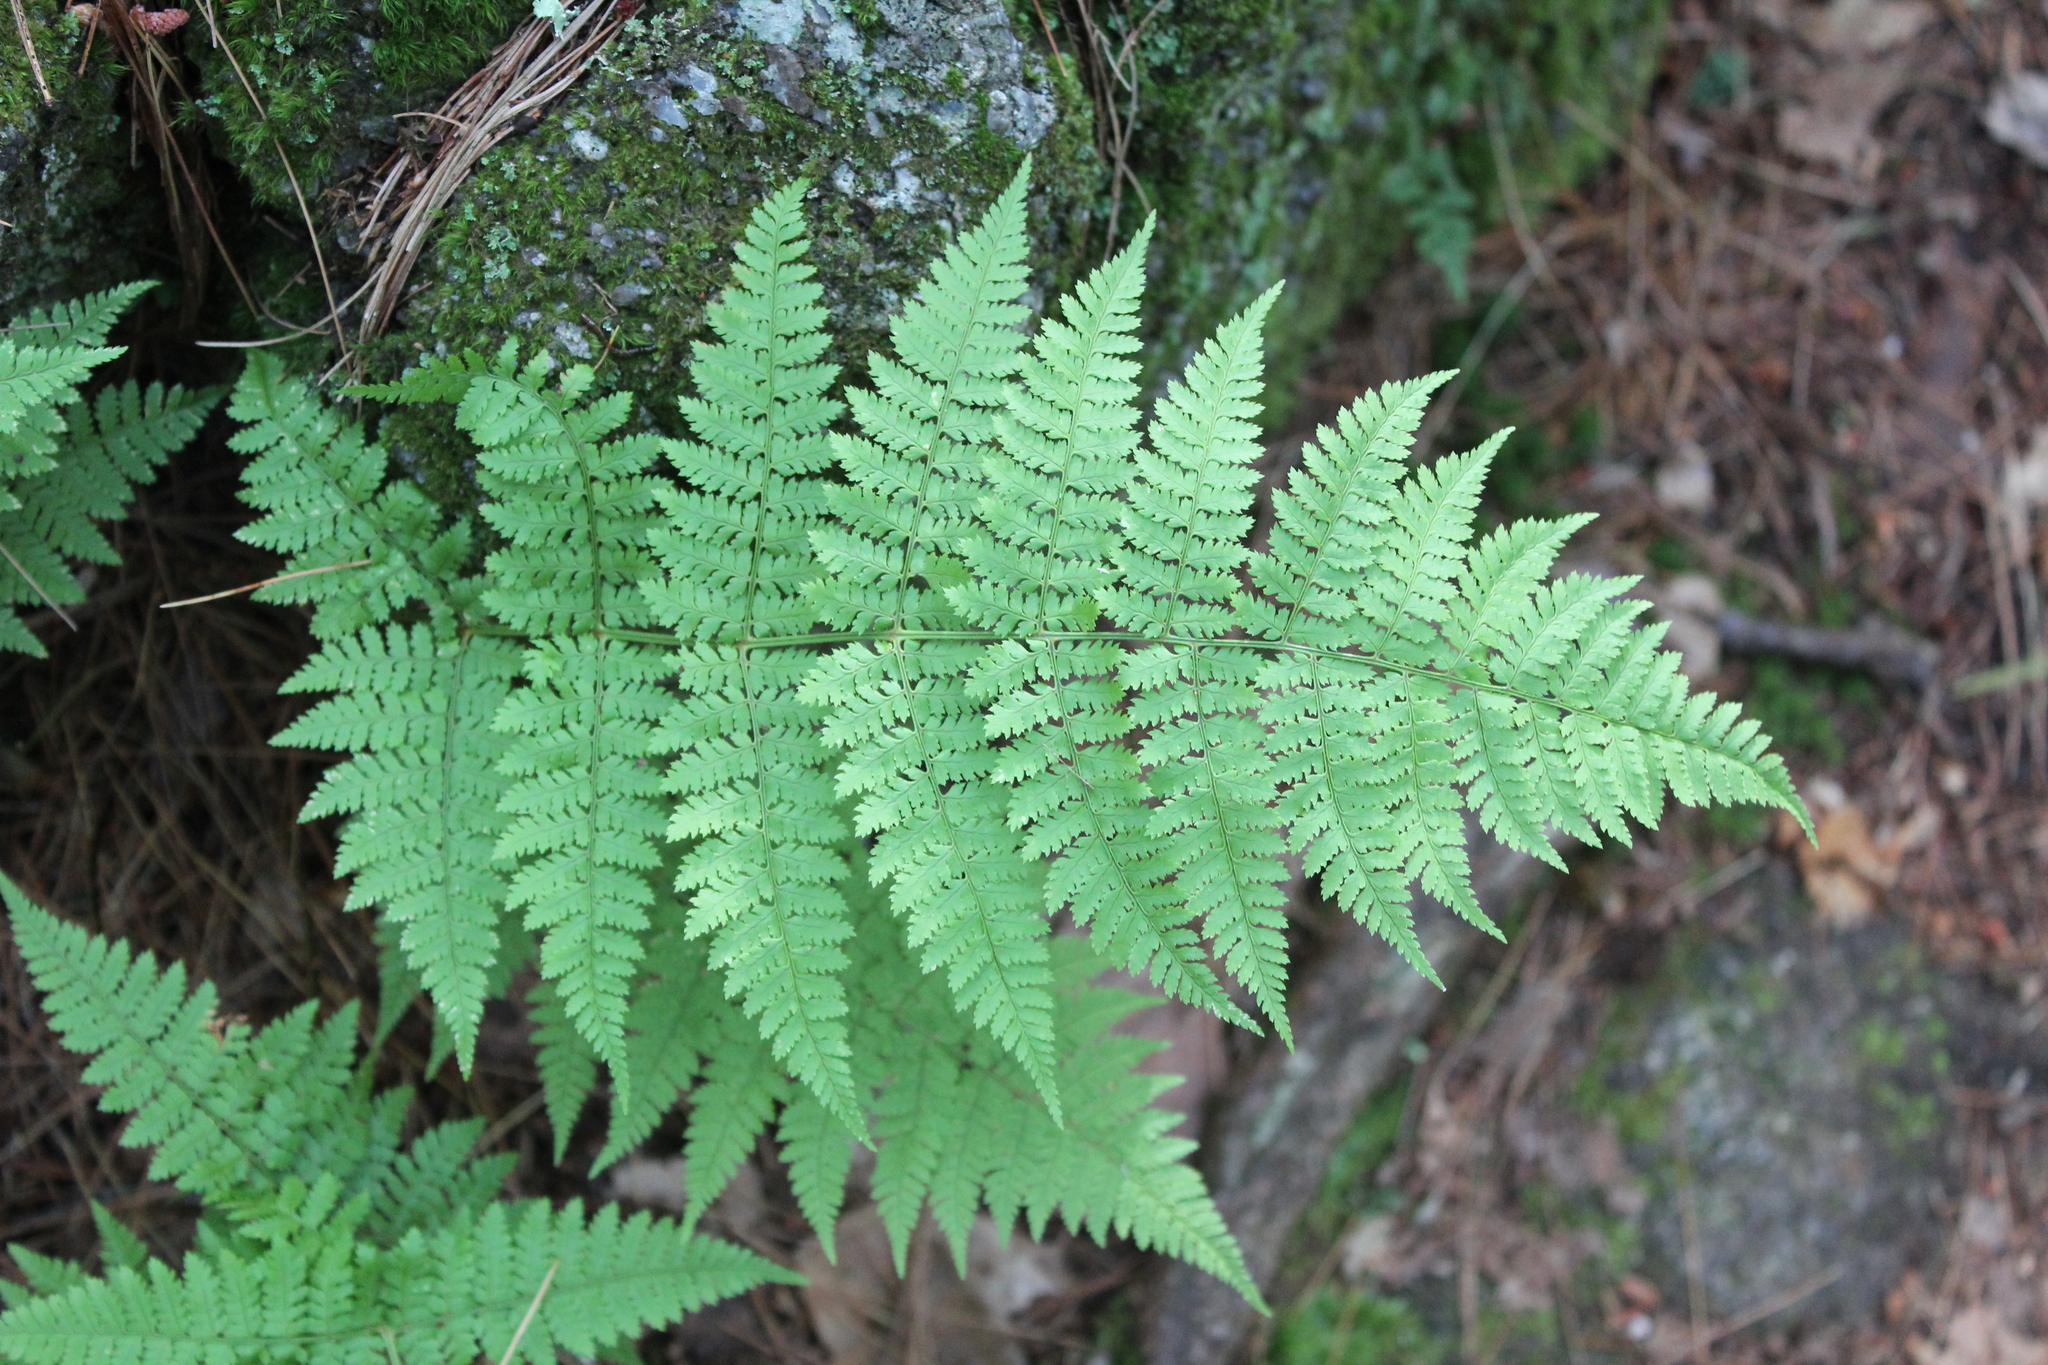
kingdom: Plantae
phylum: Tracheophyta
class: Polypodiopsida
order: Polypodiales
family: Dryopteridaceae
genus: Dryopteris
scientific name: Dryopteris intermedia
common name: Evergreen wood fern
